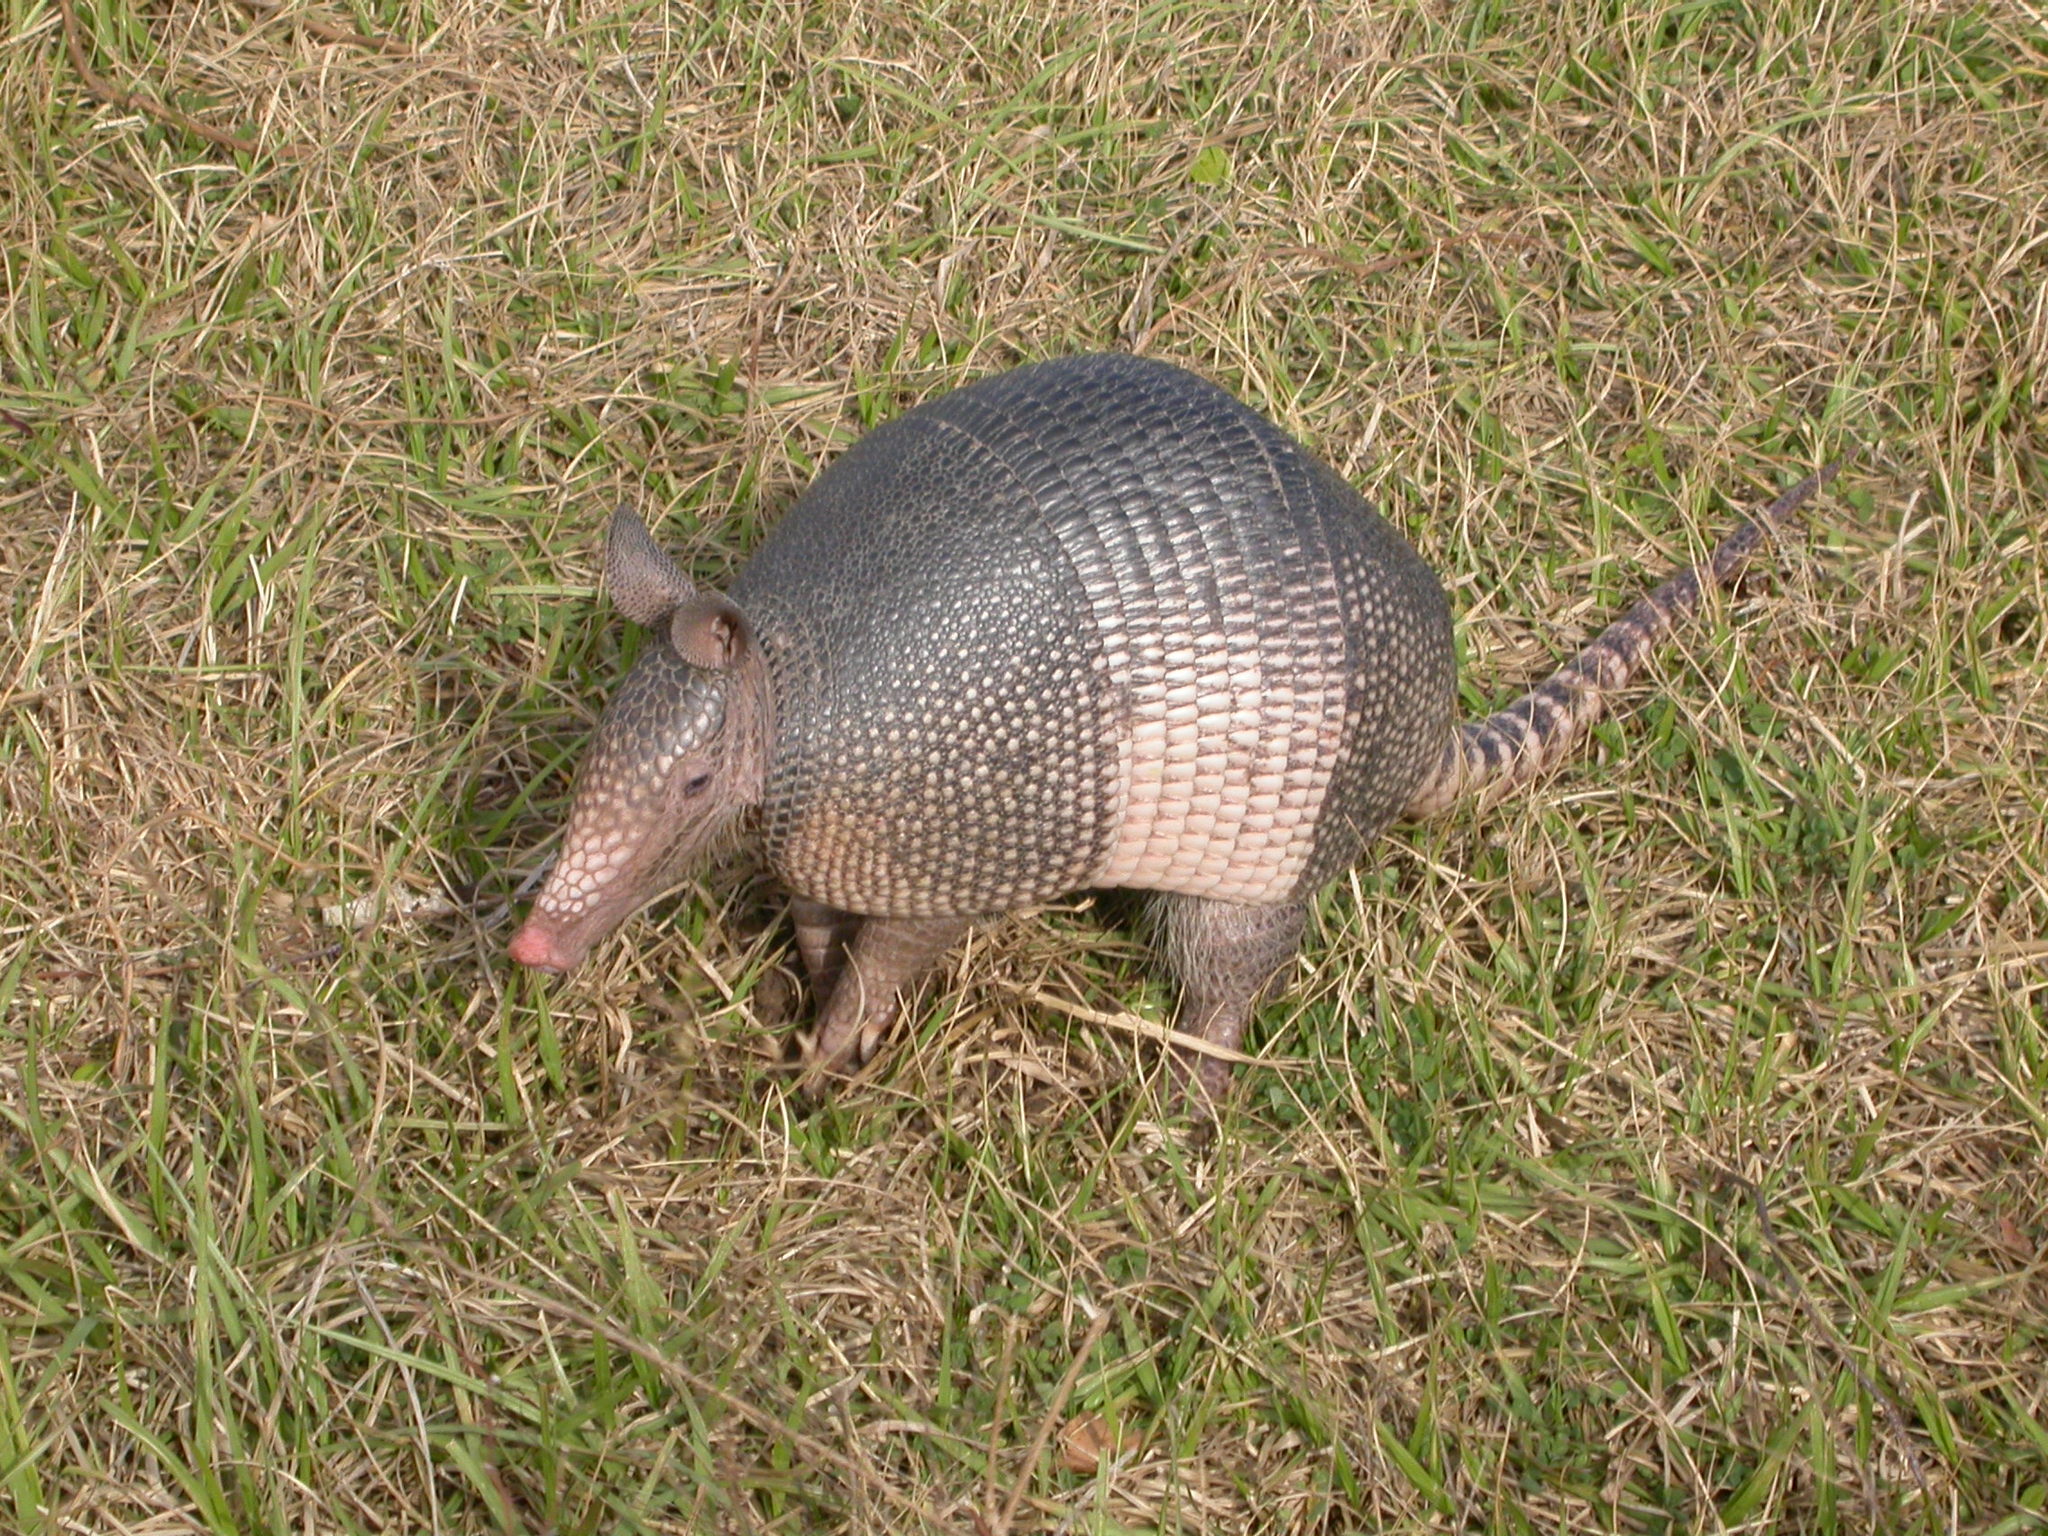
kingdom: Animalia
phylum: Chordata
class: Mammalia
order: Cingulata
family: Dasypodidae
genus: Dasypus
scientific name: Dasypus novemcinctus
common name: Nine-banded armadillo
